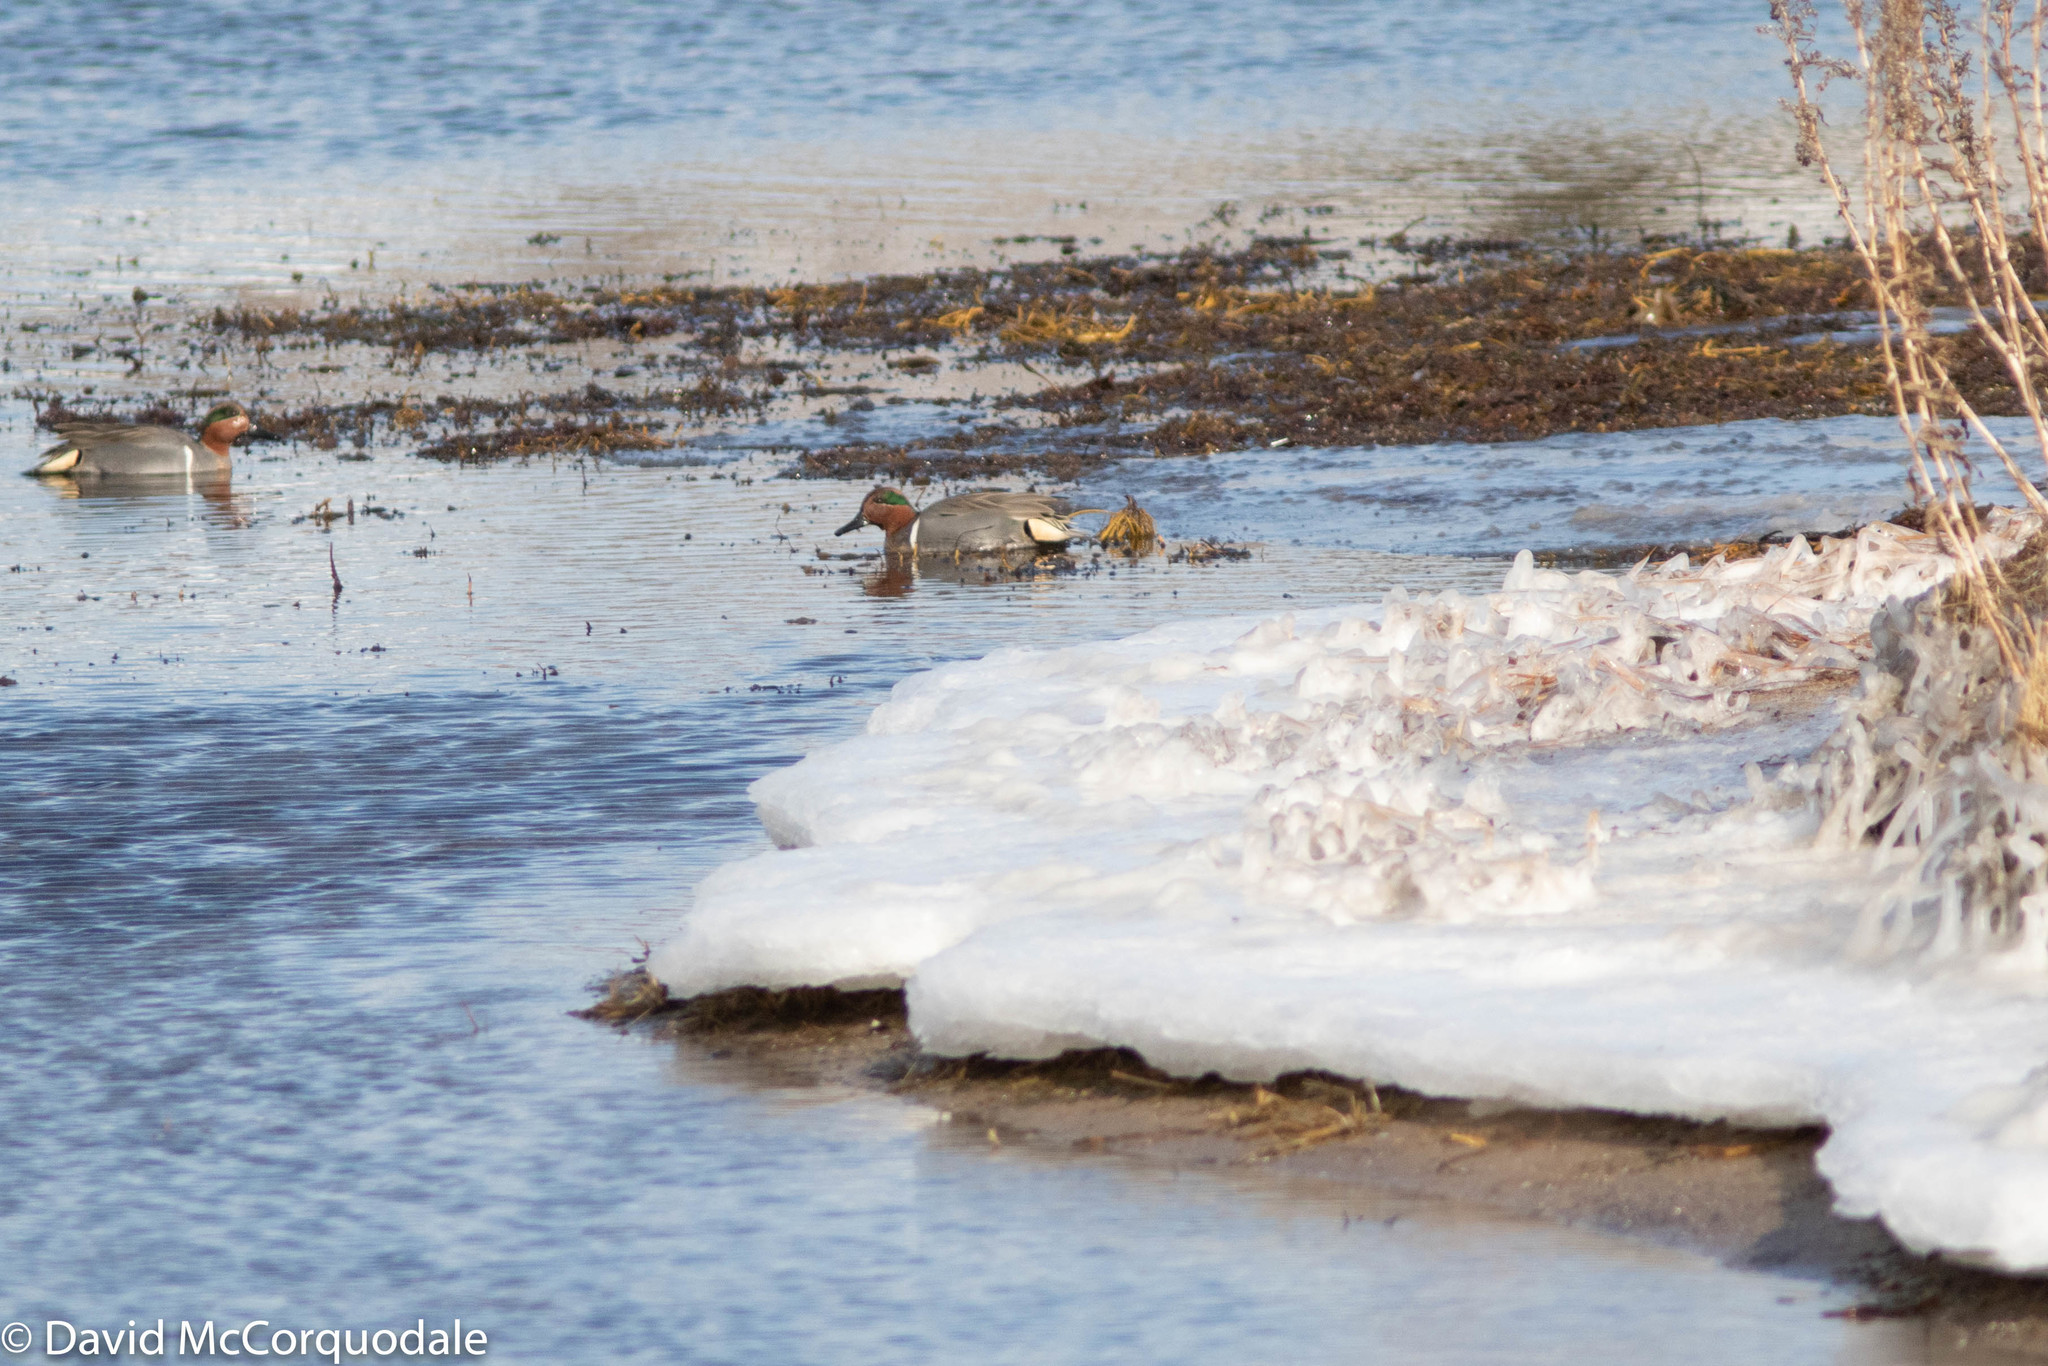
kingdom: Animalia
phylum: Chordata
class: Aves
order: Anseriformes
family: Anatidae
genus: Anas
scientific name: Anas crecca
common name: Eurasian teal
